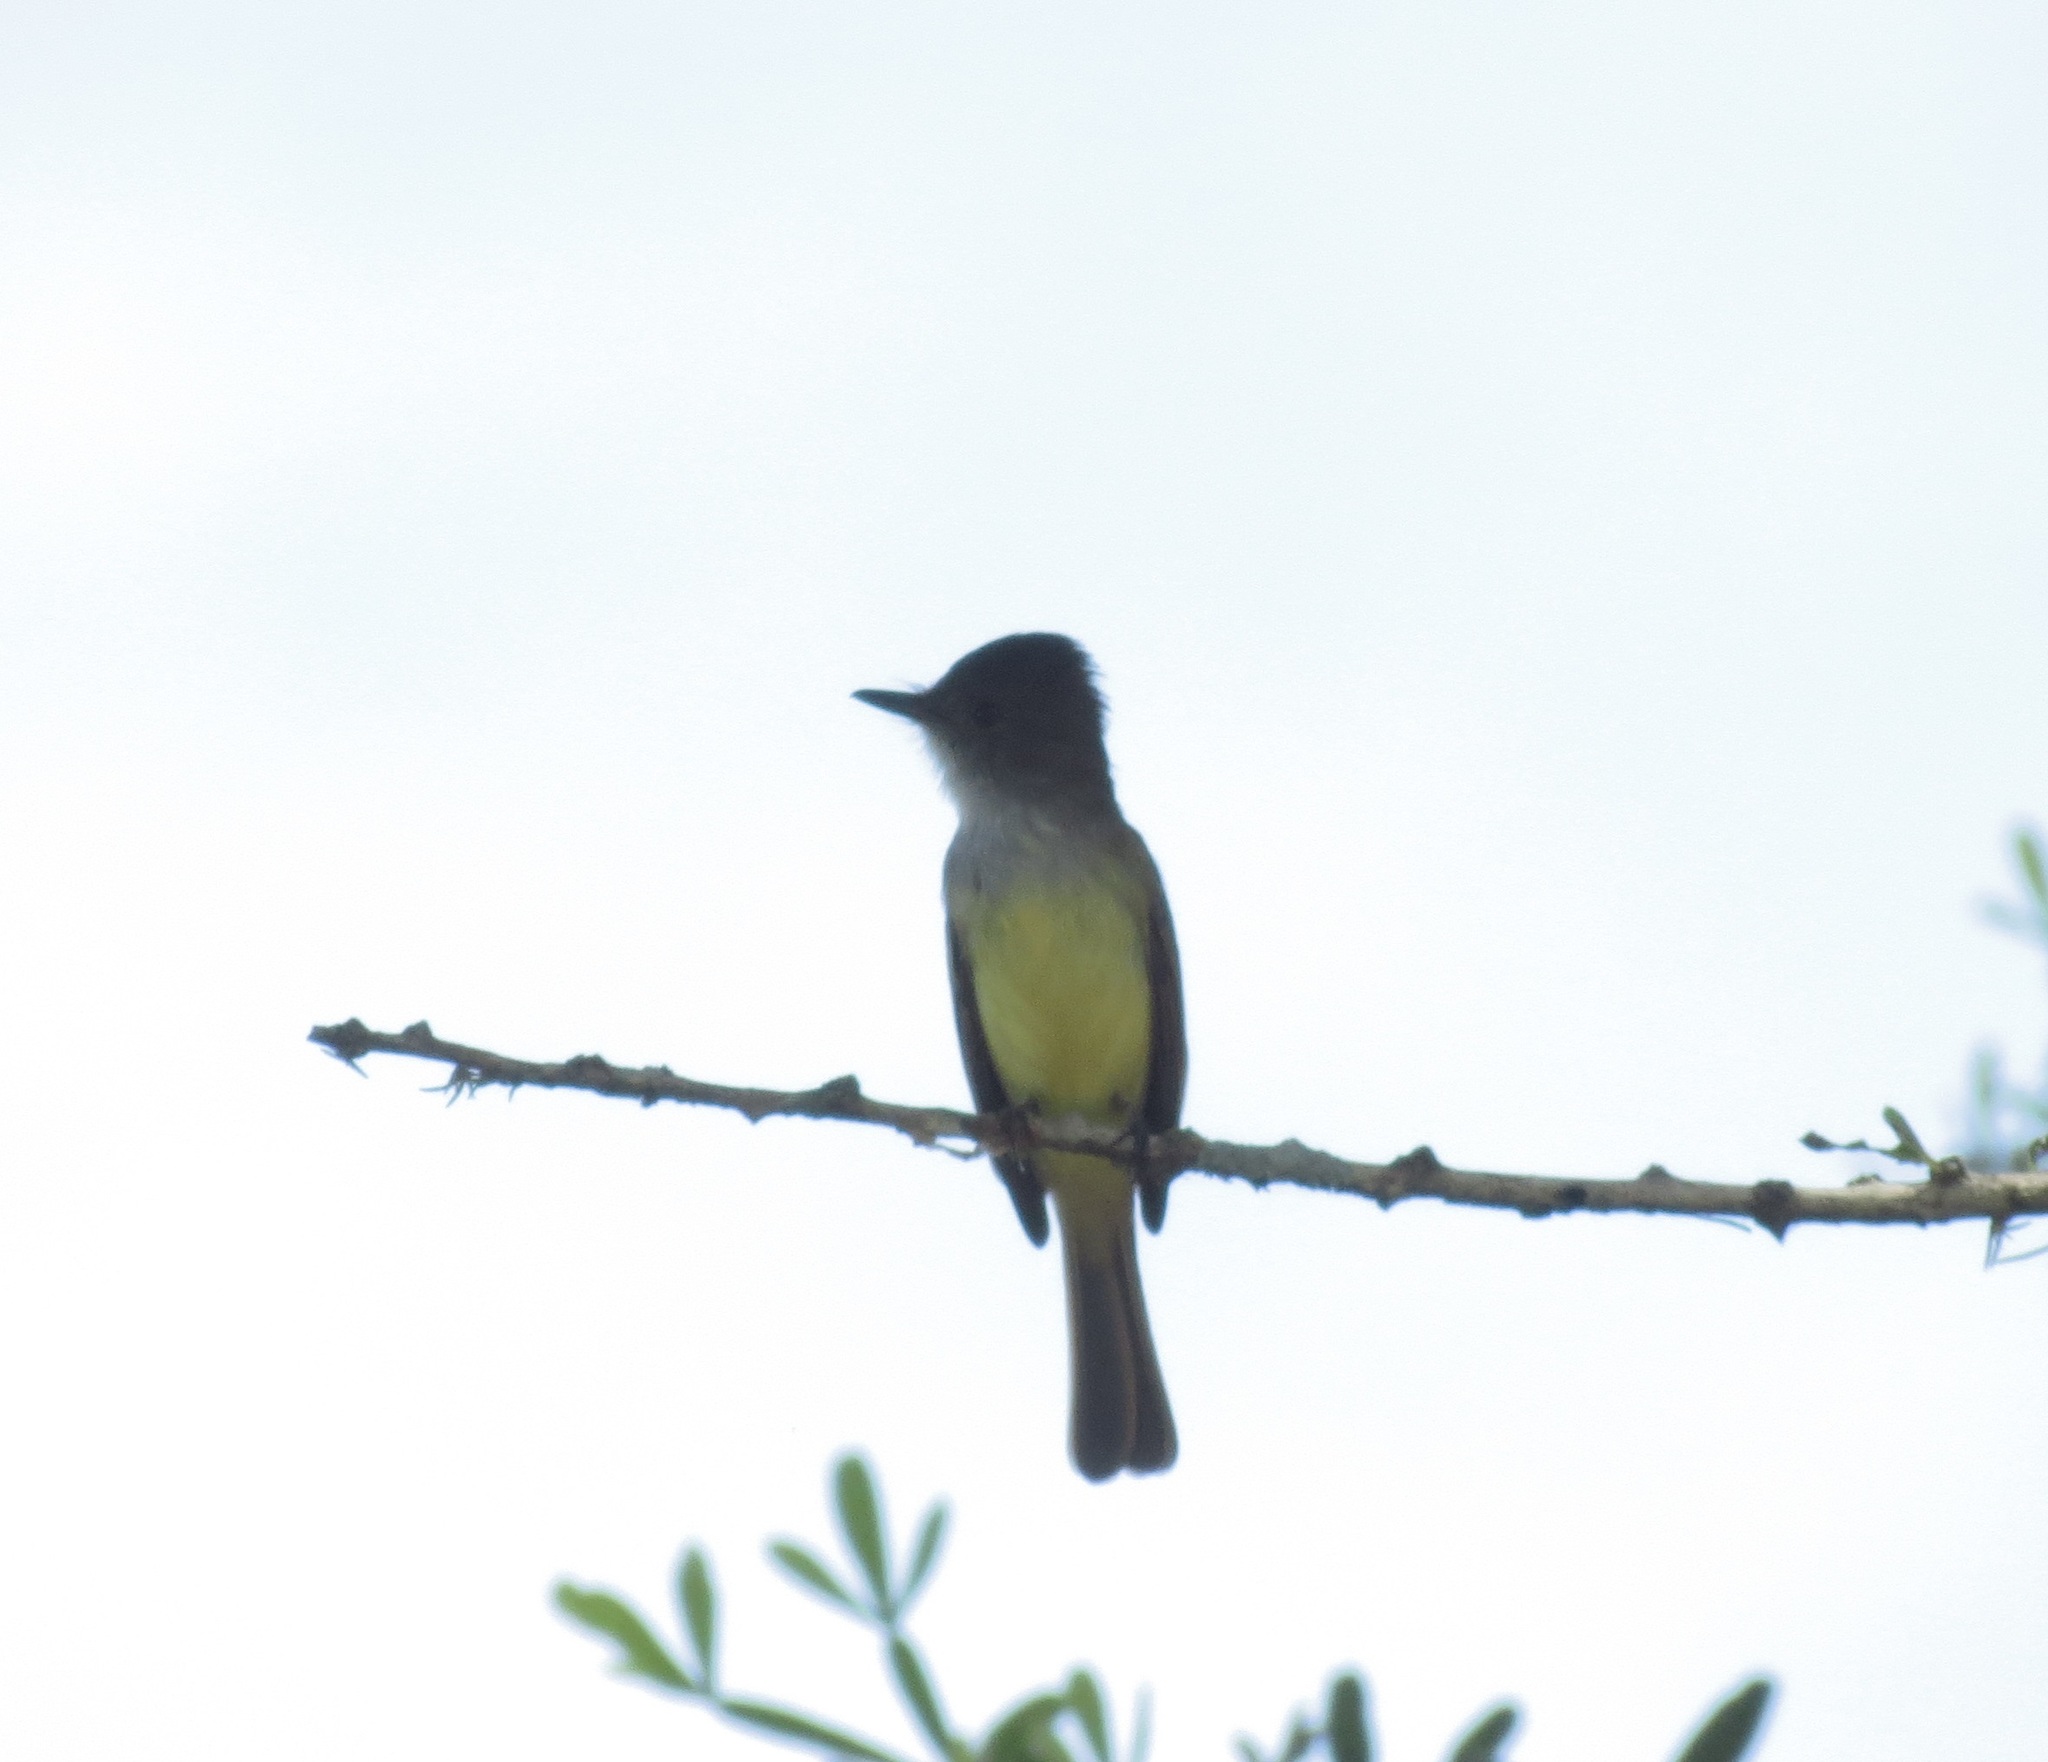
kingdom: Animalia
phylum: Chordata
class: Aves
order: Passeriformes
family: Tyrannidae
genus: Myiarchus
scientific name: Myiarchus tuberculifer
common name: Dusky-capped flycatcher
